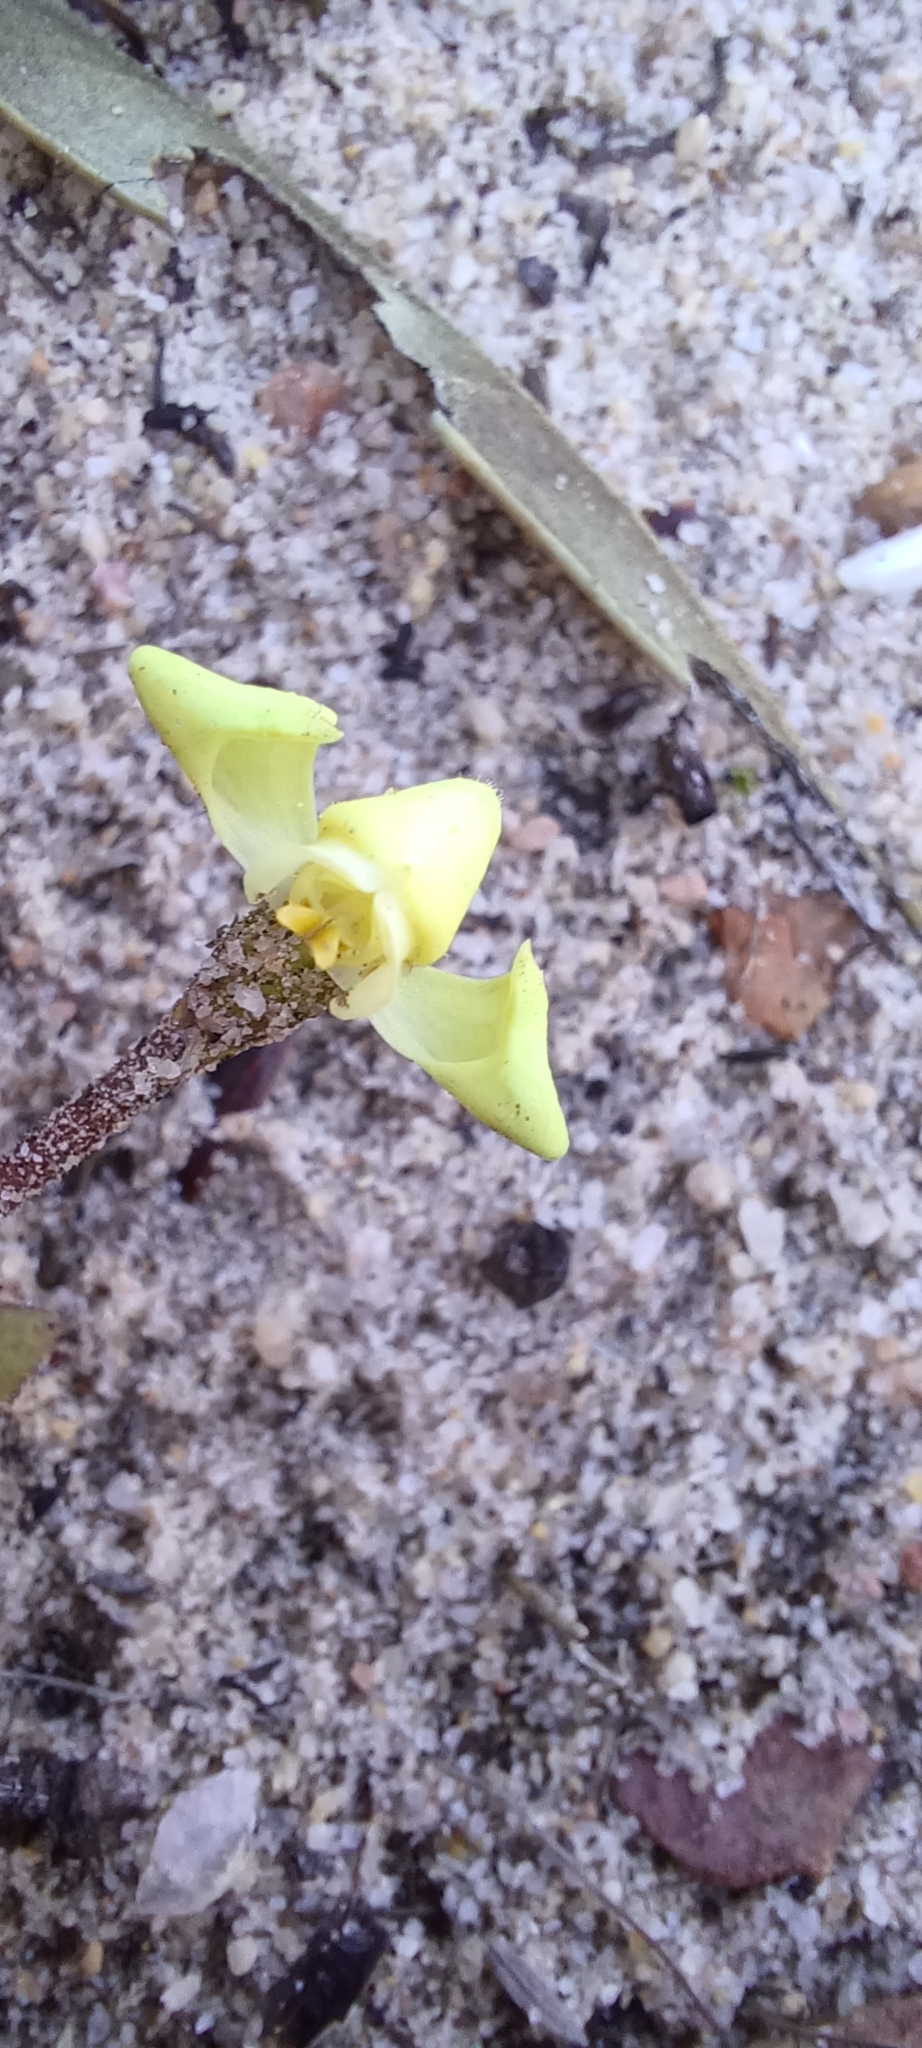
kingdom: Plantae
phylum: Tracheophyta
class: Liliopsida
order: Asparagales
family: Orchidaceae
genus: Disperis
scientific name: Disperis villosa
